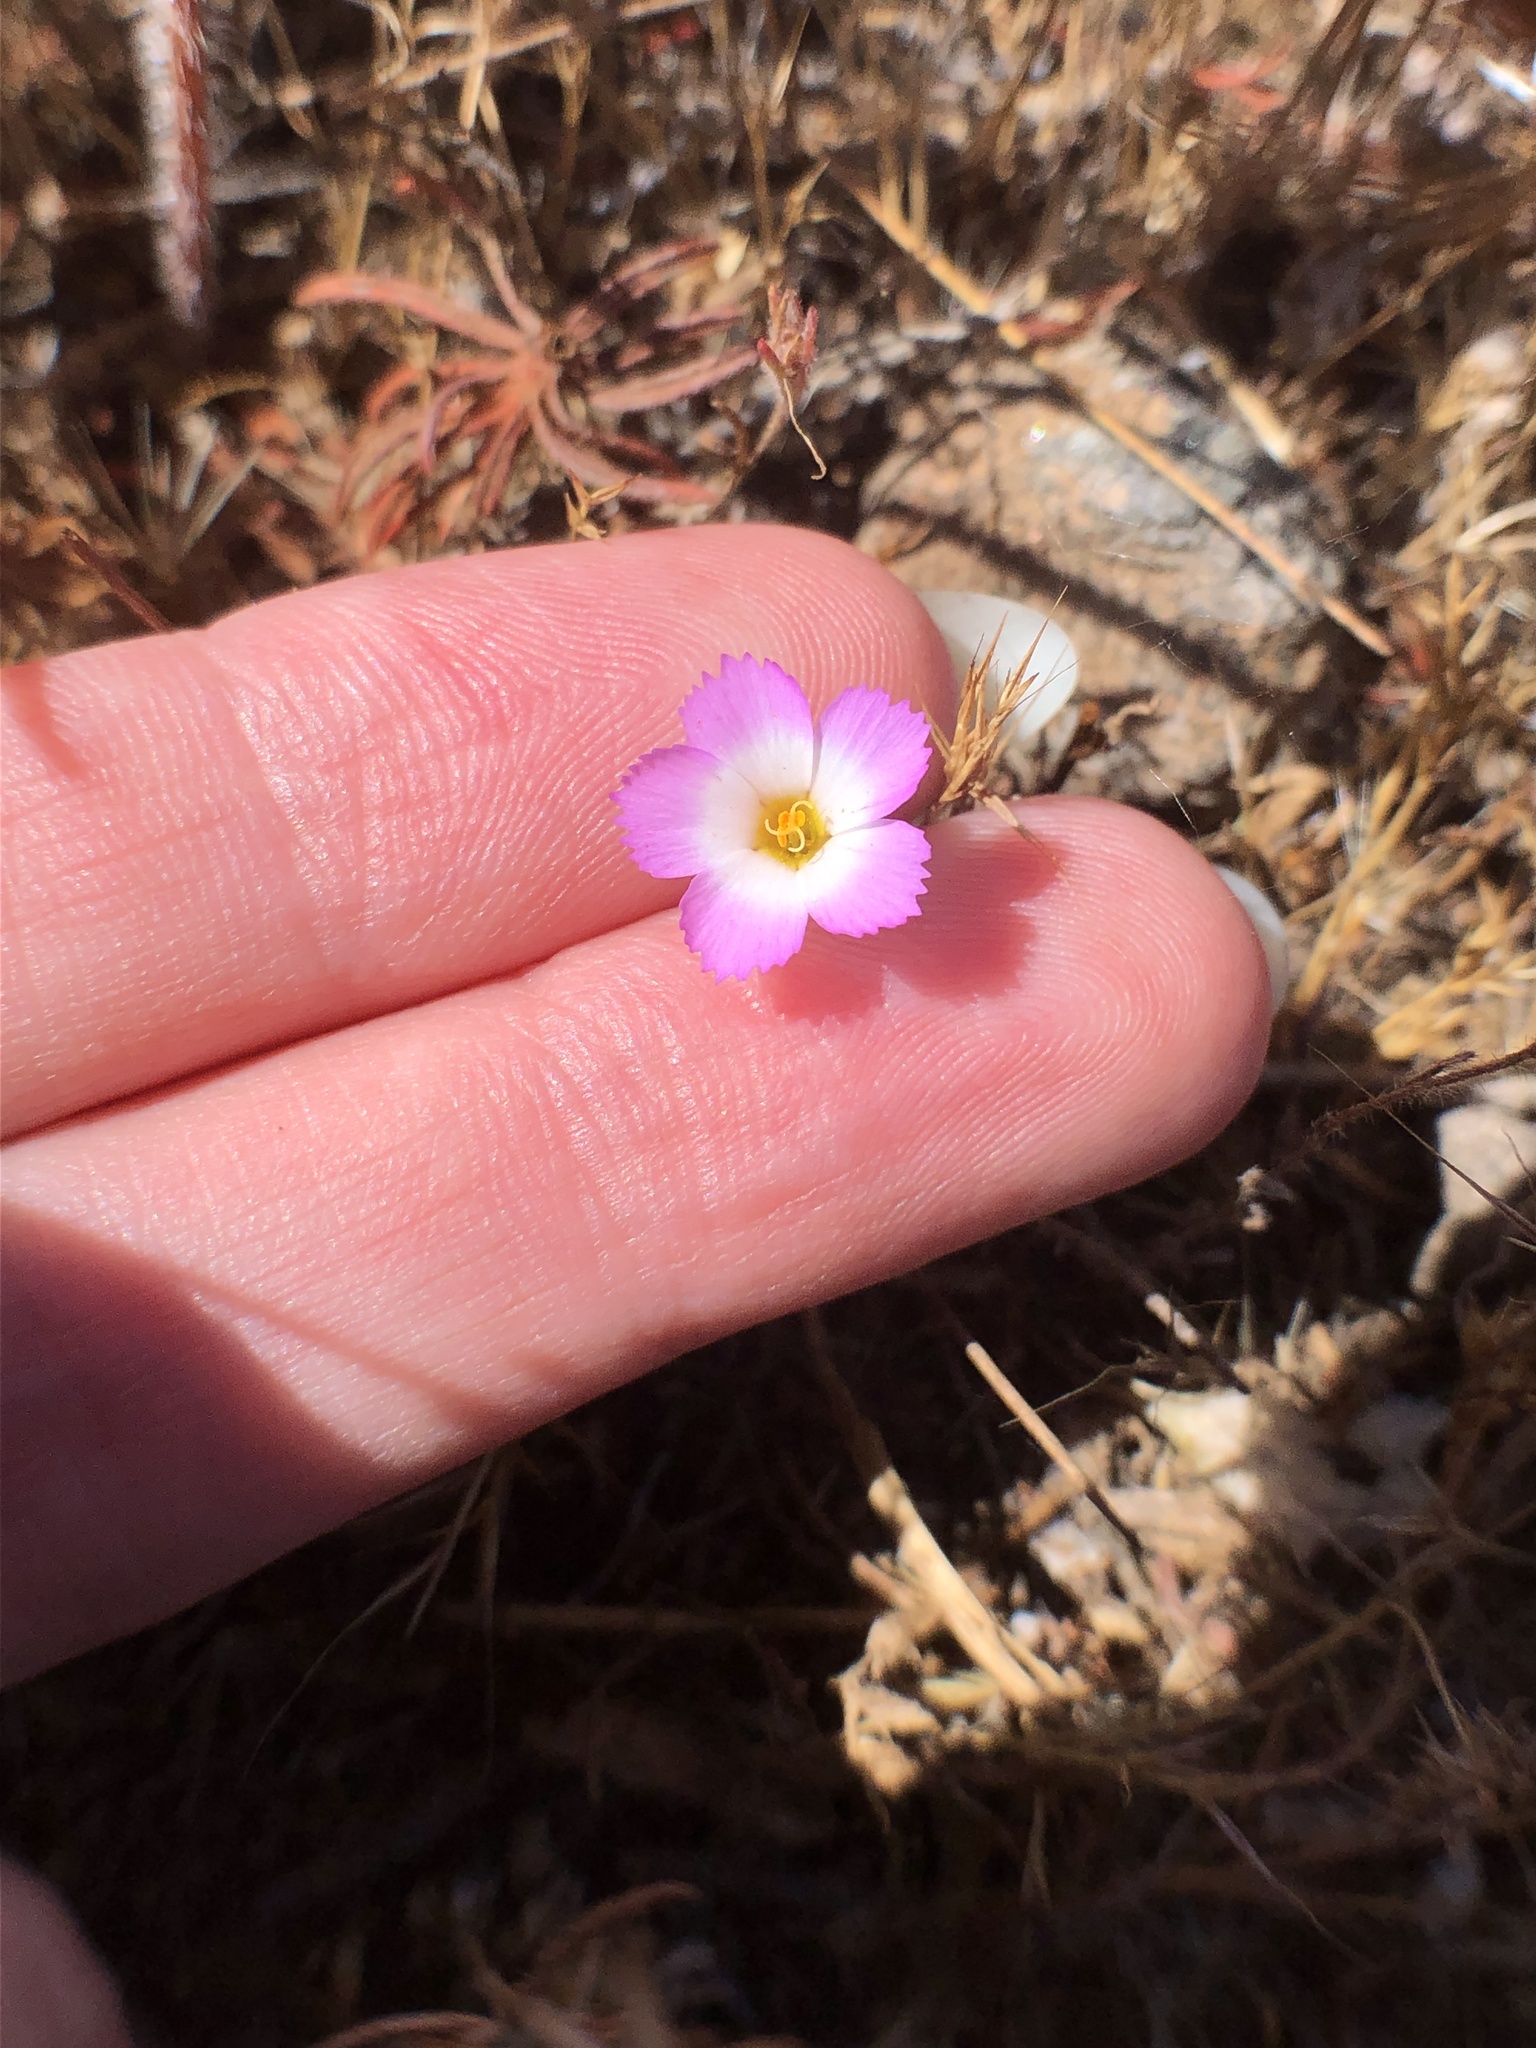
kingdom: Plantae
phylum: Tracheophyta
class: Magnoliopsida
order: Ericales
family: Polemoniaceae
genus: Linanthus
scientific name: Linanthus dianthiflorus
